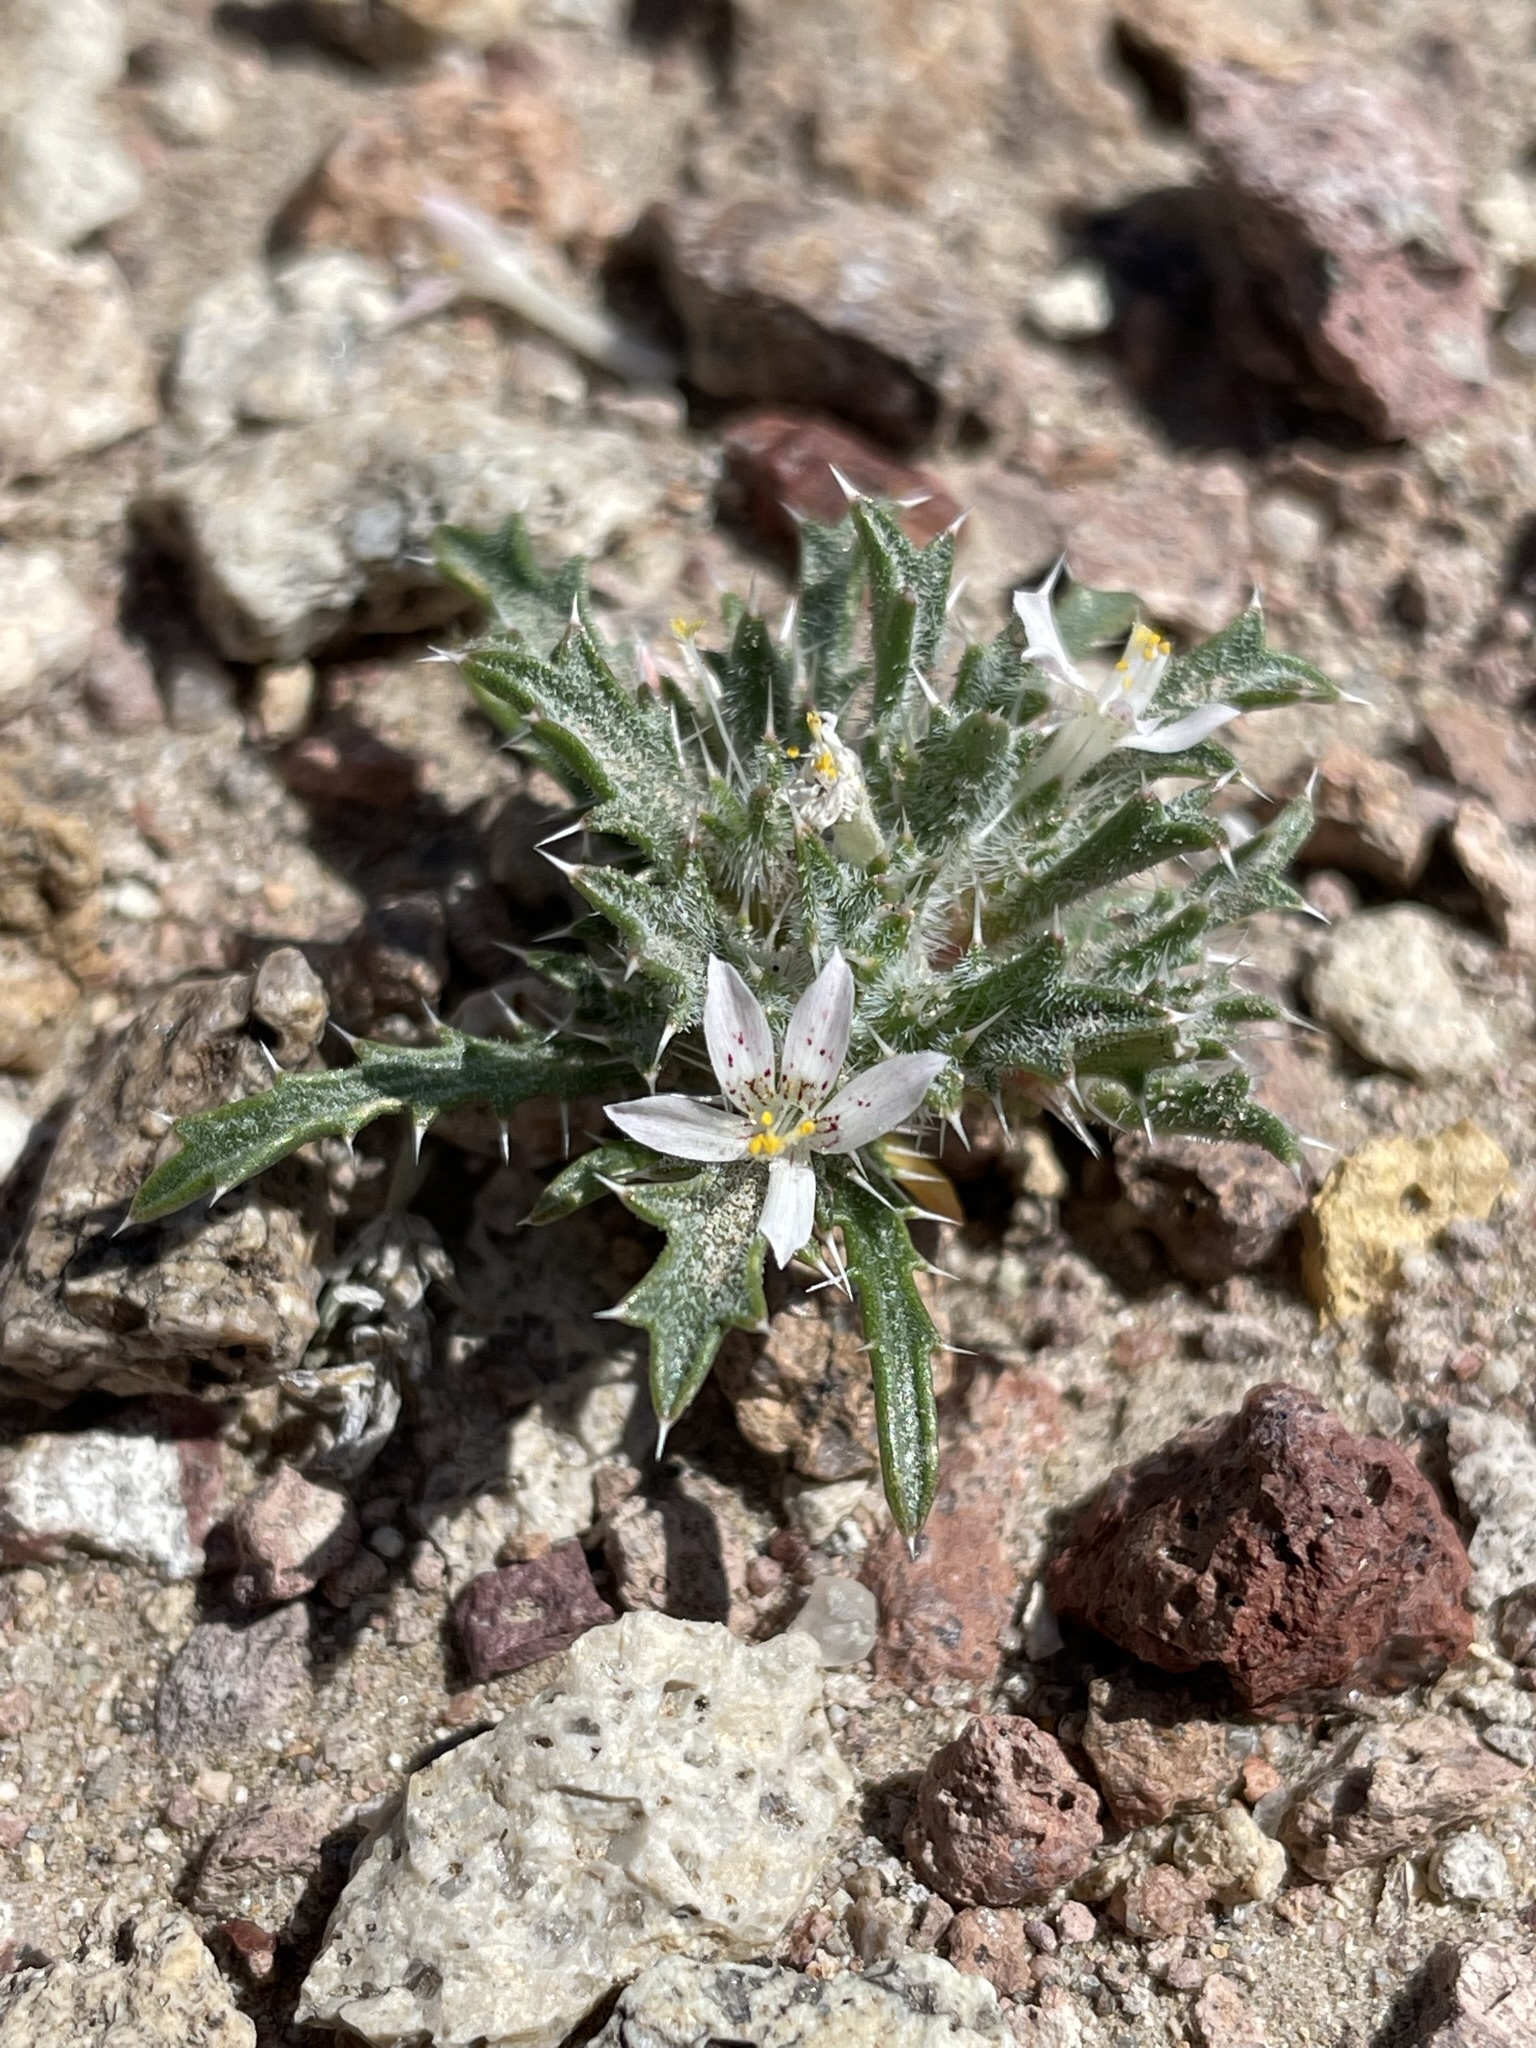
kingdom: Plantae
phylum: Tracheophyta
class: Magnoliopsida
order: Ericales
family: Polemoniaceae
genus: Loeseliastrum
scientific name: Loeseliastrum schottii
